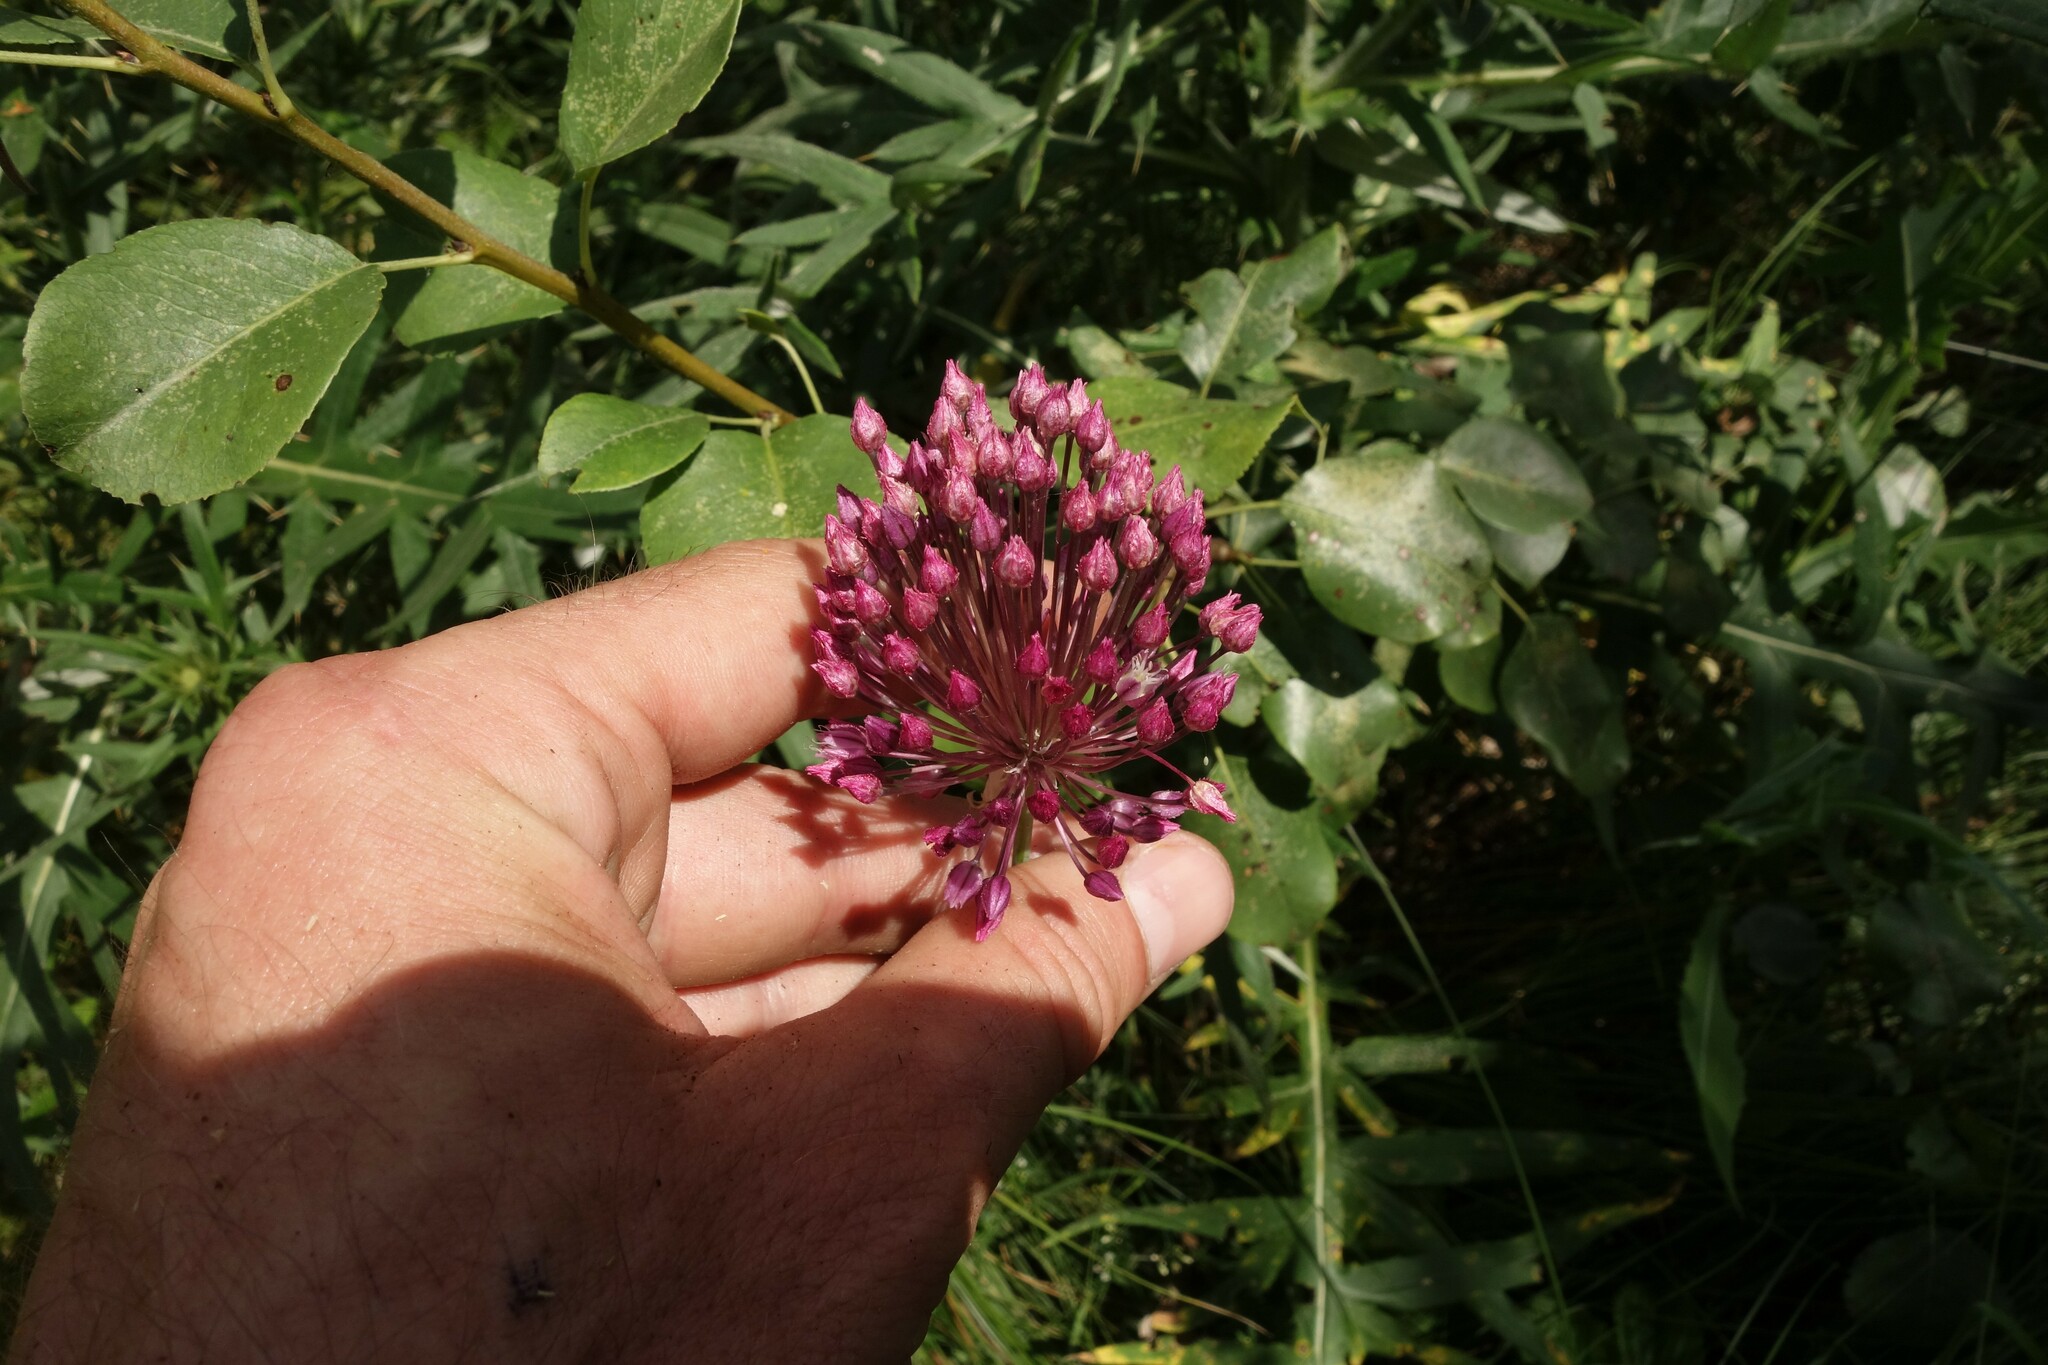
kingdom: Plantae
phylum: Tracheophyta
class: Liliopsida
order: Asparagales
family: Amaryllidaceae
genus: Allium
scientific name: Allium rotundum
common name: Sand leek
